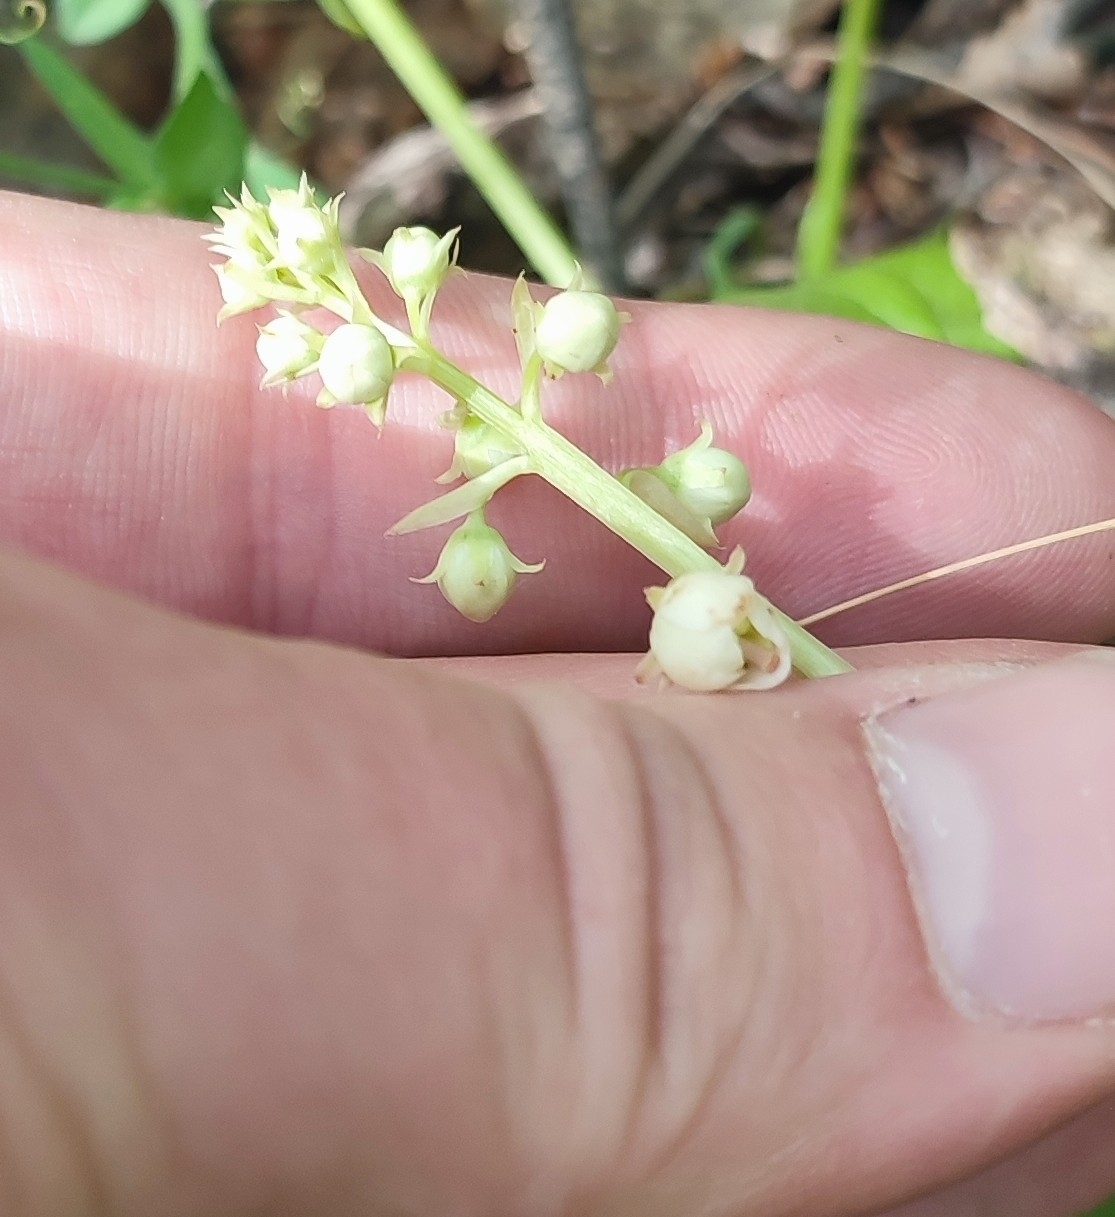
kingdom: Plantae
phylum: Tracheophyta
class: Magnoliopsida
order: Ericales
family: Ericaceae
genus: Pyrola
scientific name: Pyrola rotundifolia
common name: Round-leaved wintergreen
